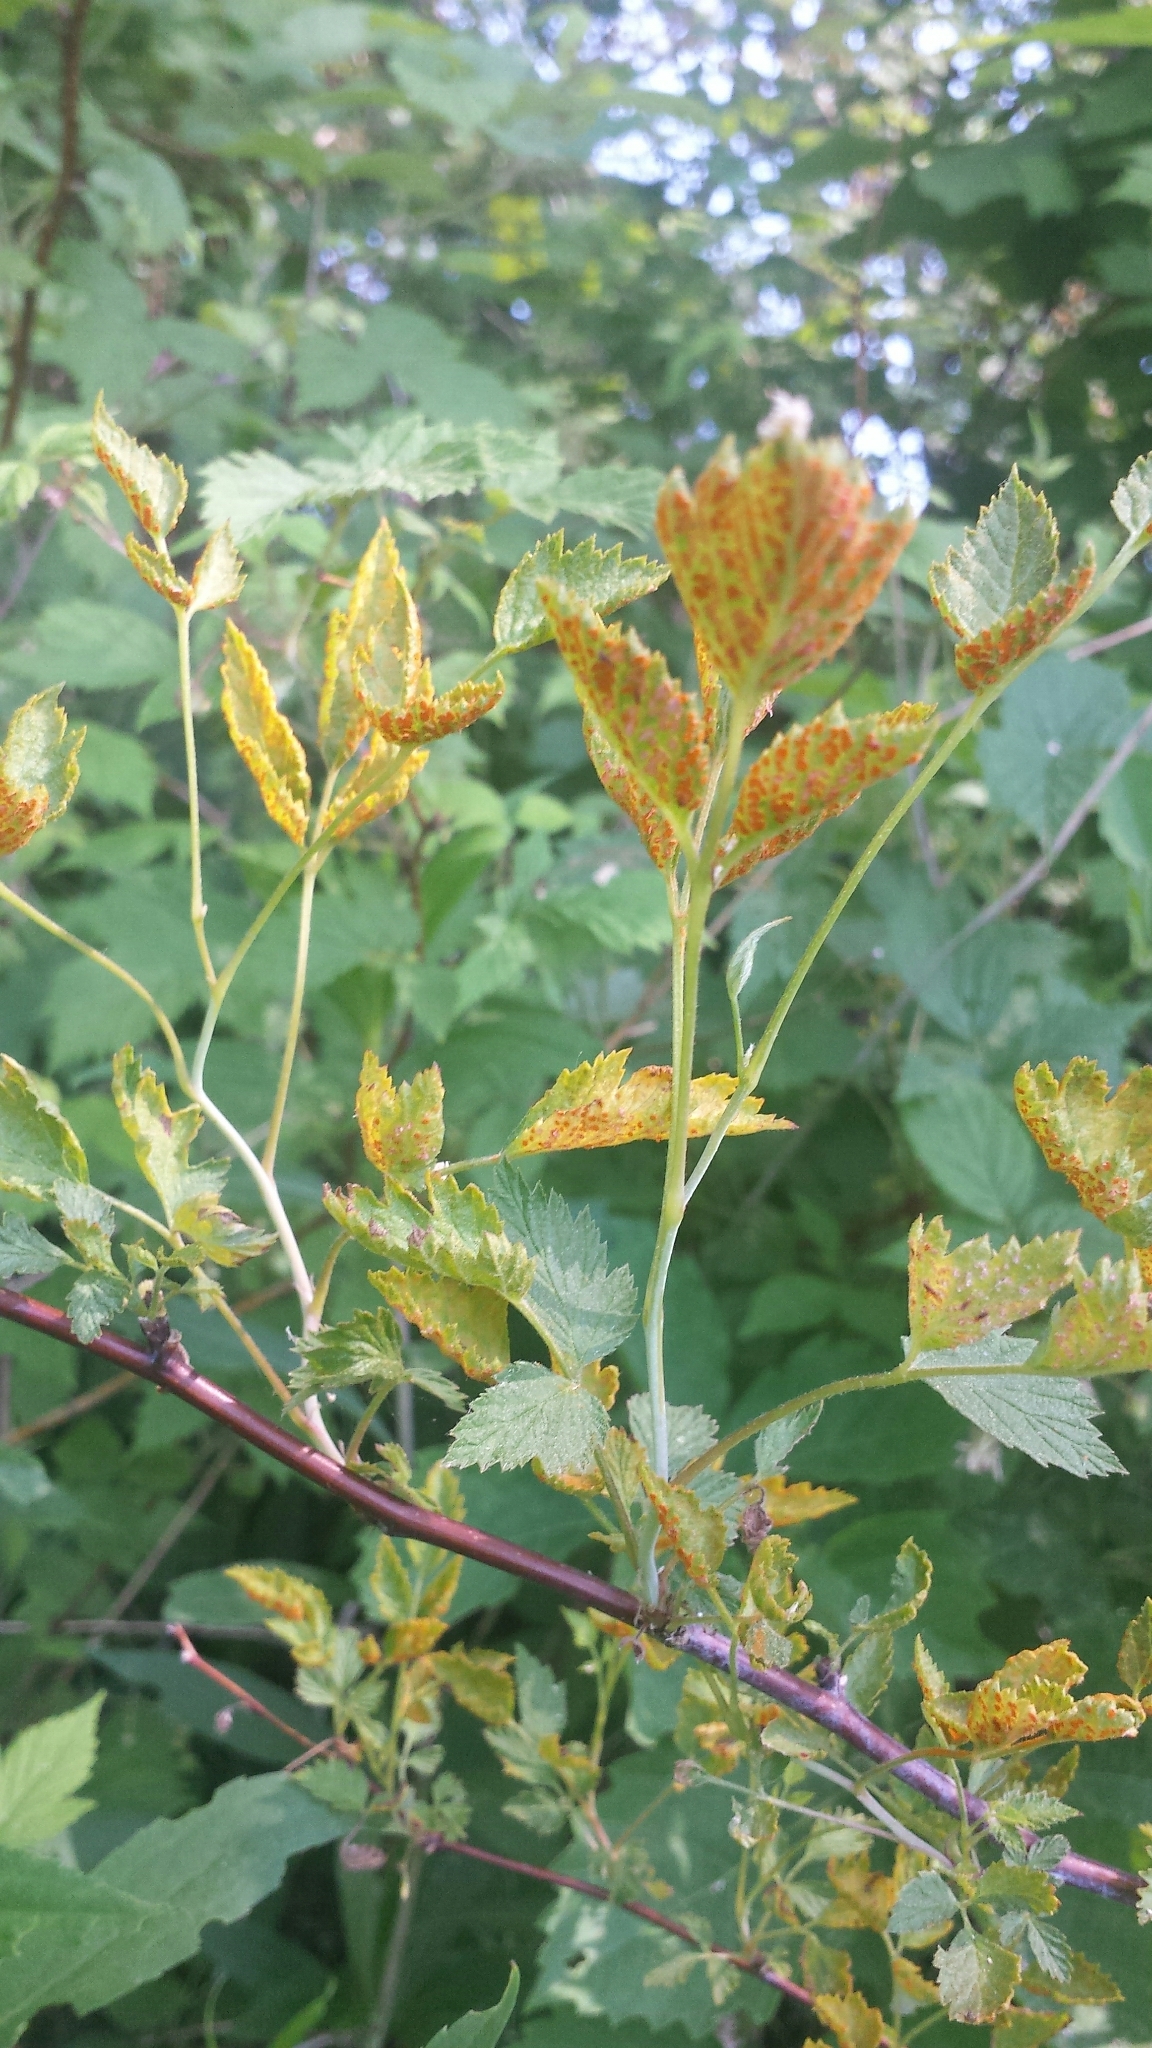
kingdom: Fungi
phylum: Basidiomycota
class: Pucciniomycetes
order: Pucciniales
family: Phragmidiaceae
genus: Arthuriomyces
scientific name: Arthuriomyces peckianus
